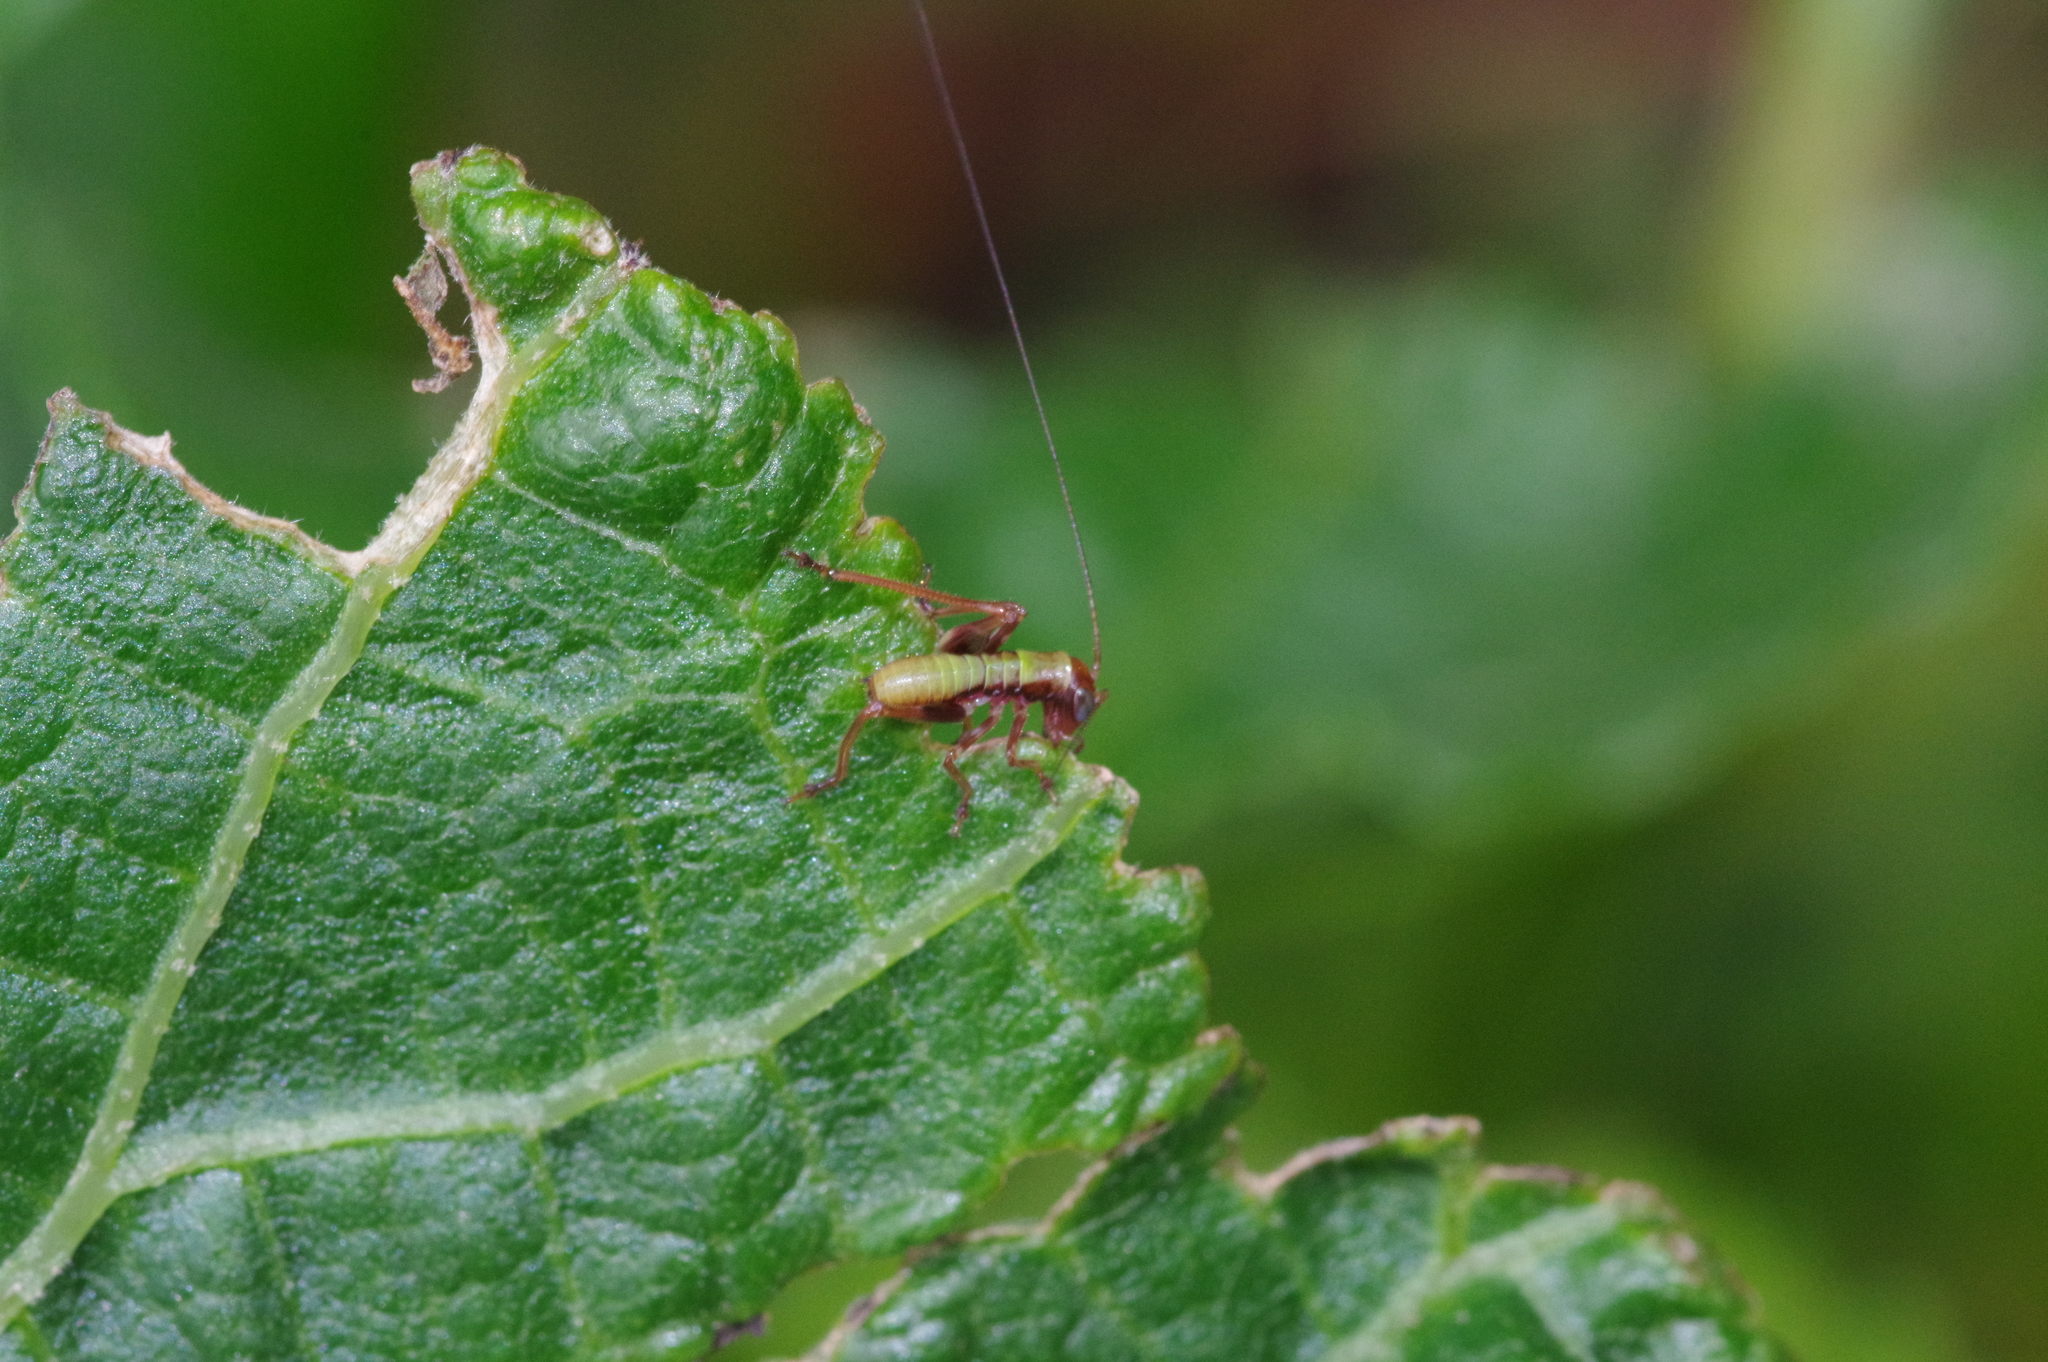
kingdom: Animalia
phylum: Arthropoda
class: Insecta
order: Orthoptera
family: Tettigoniidae
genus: Isopsera
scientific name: Isopsera denticulata
